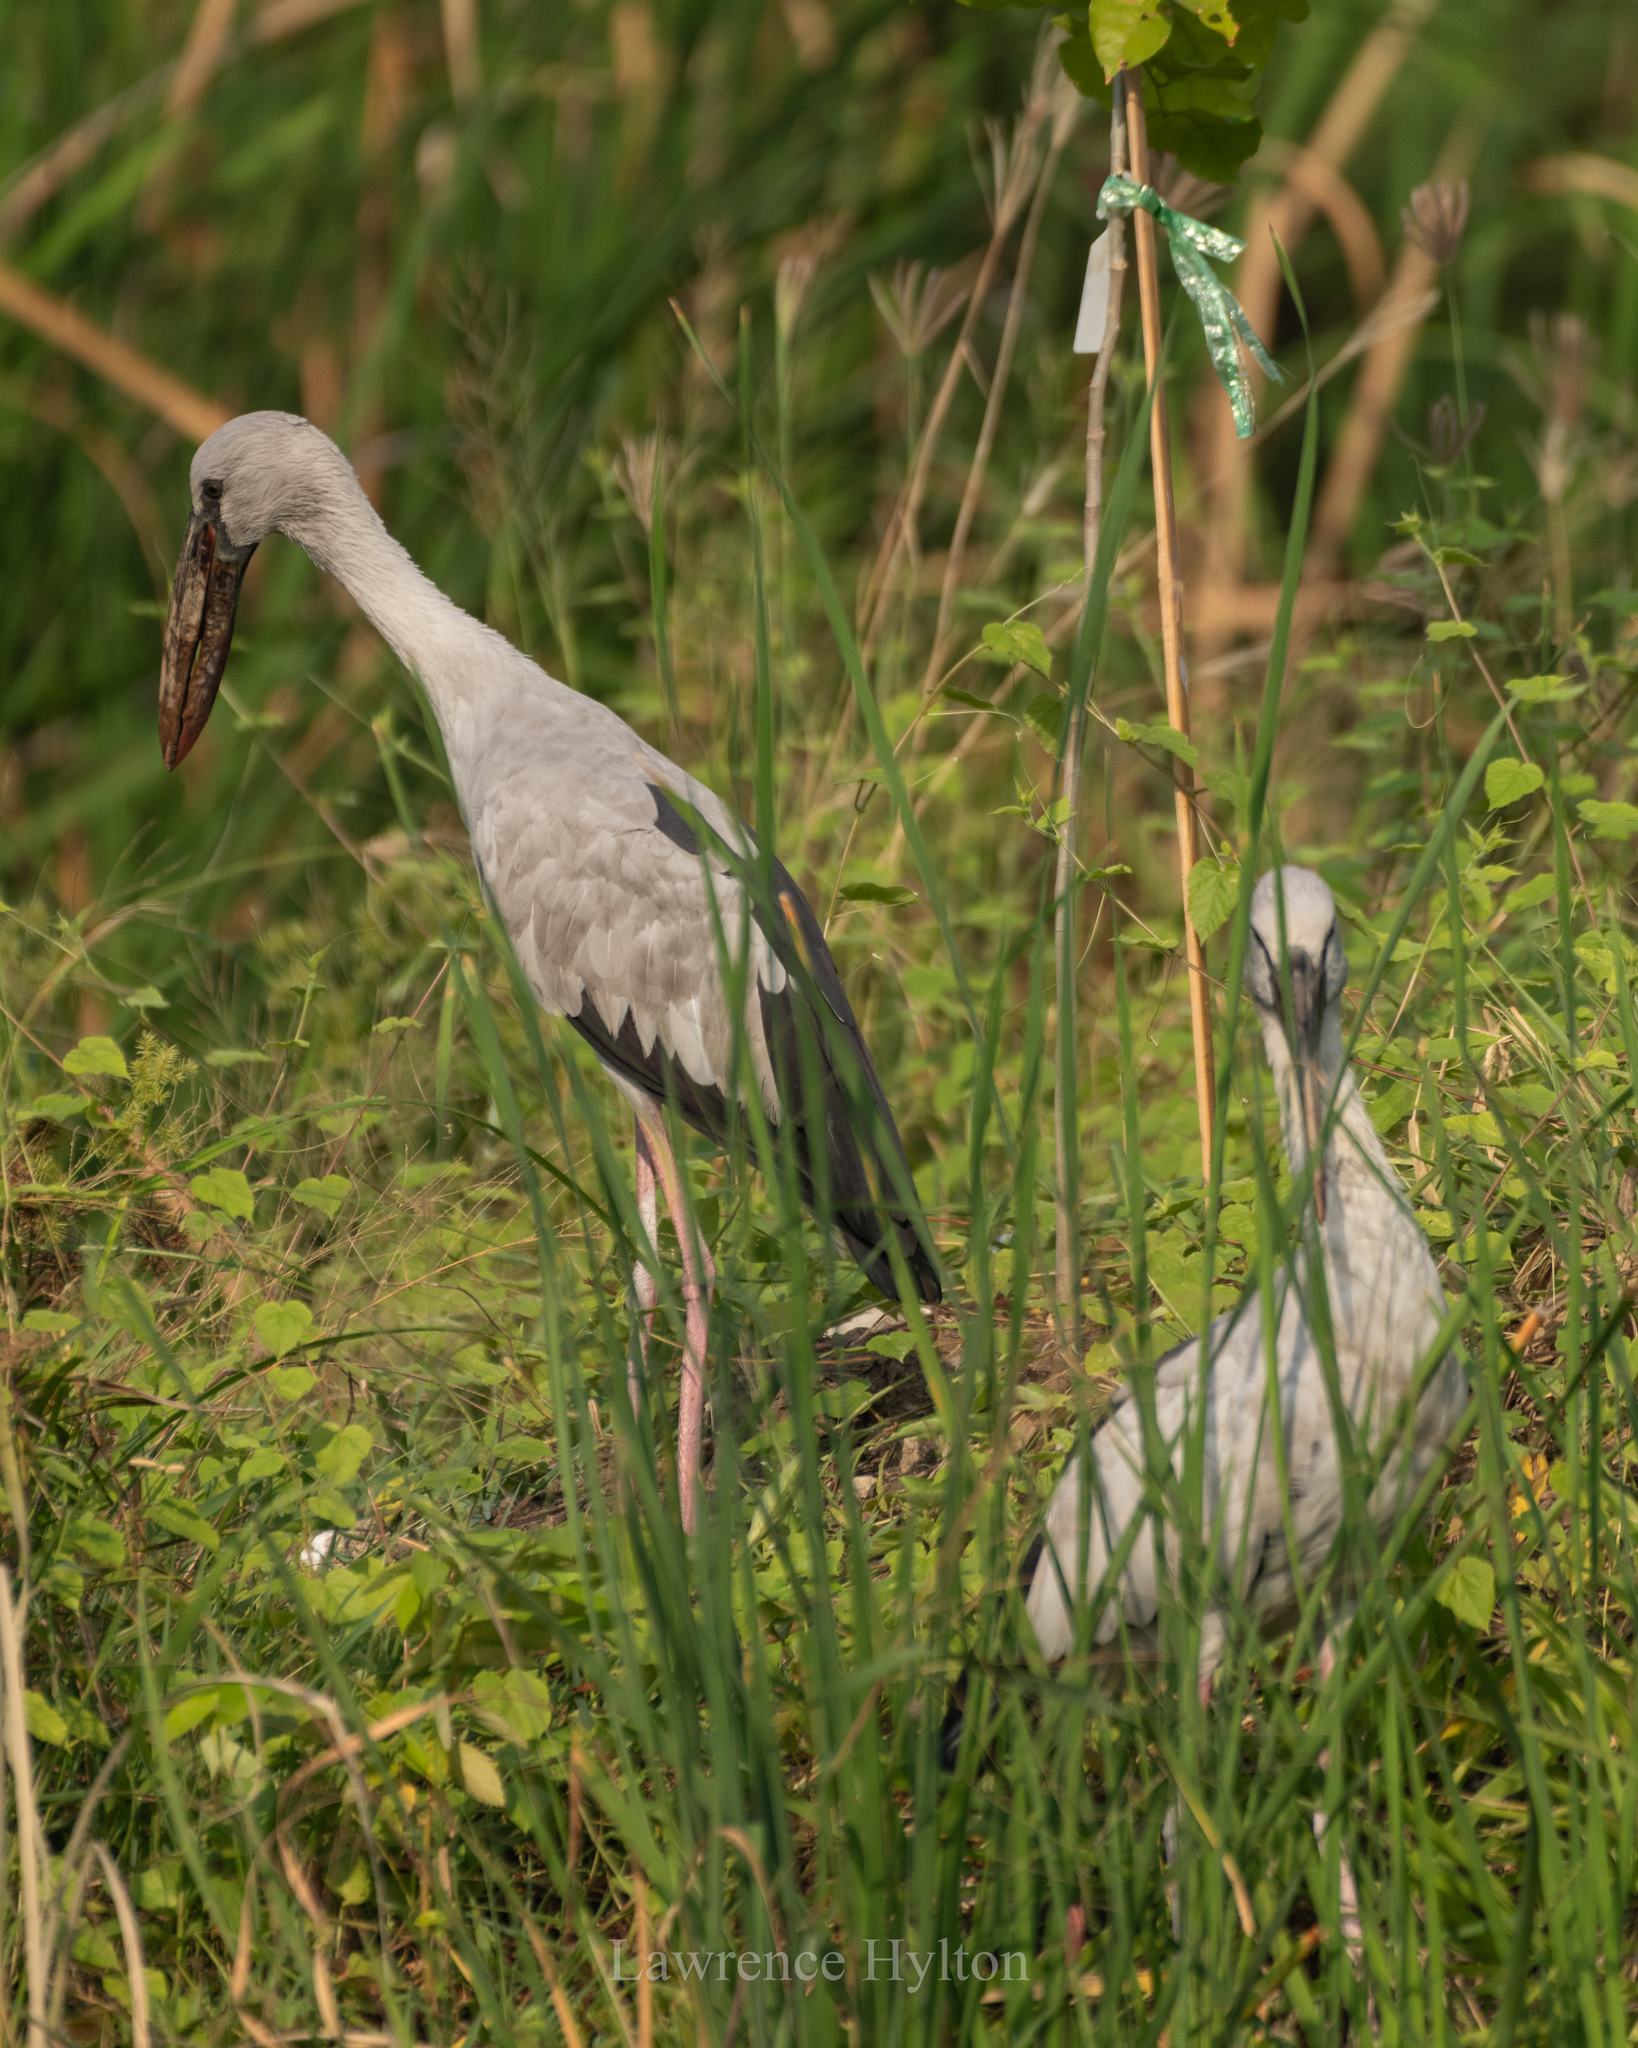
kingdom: Animalia
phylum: Chordata
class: Aves
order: Ciconiiformes
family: Ciconiidae
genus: Anastomus
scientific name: Anastomus oscitans
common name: Asian openbill
